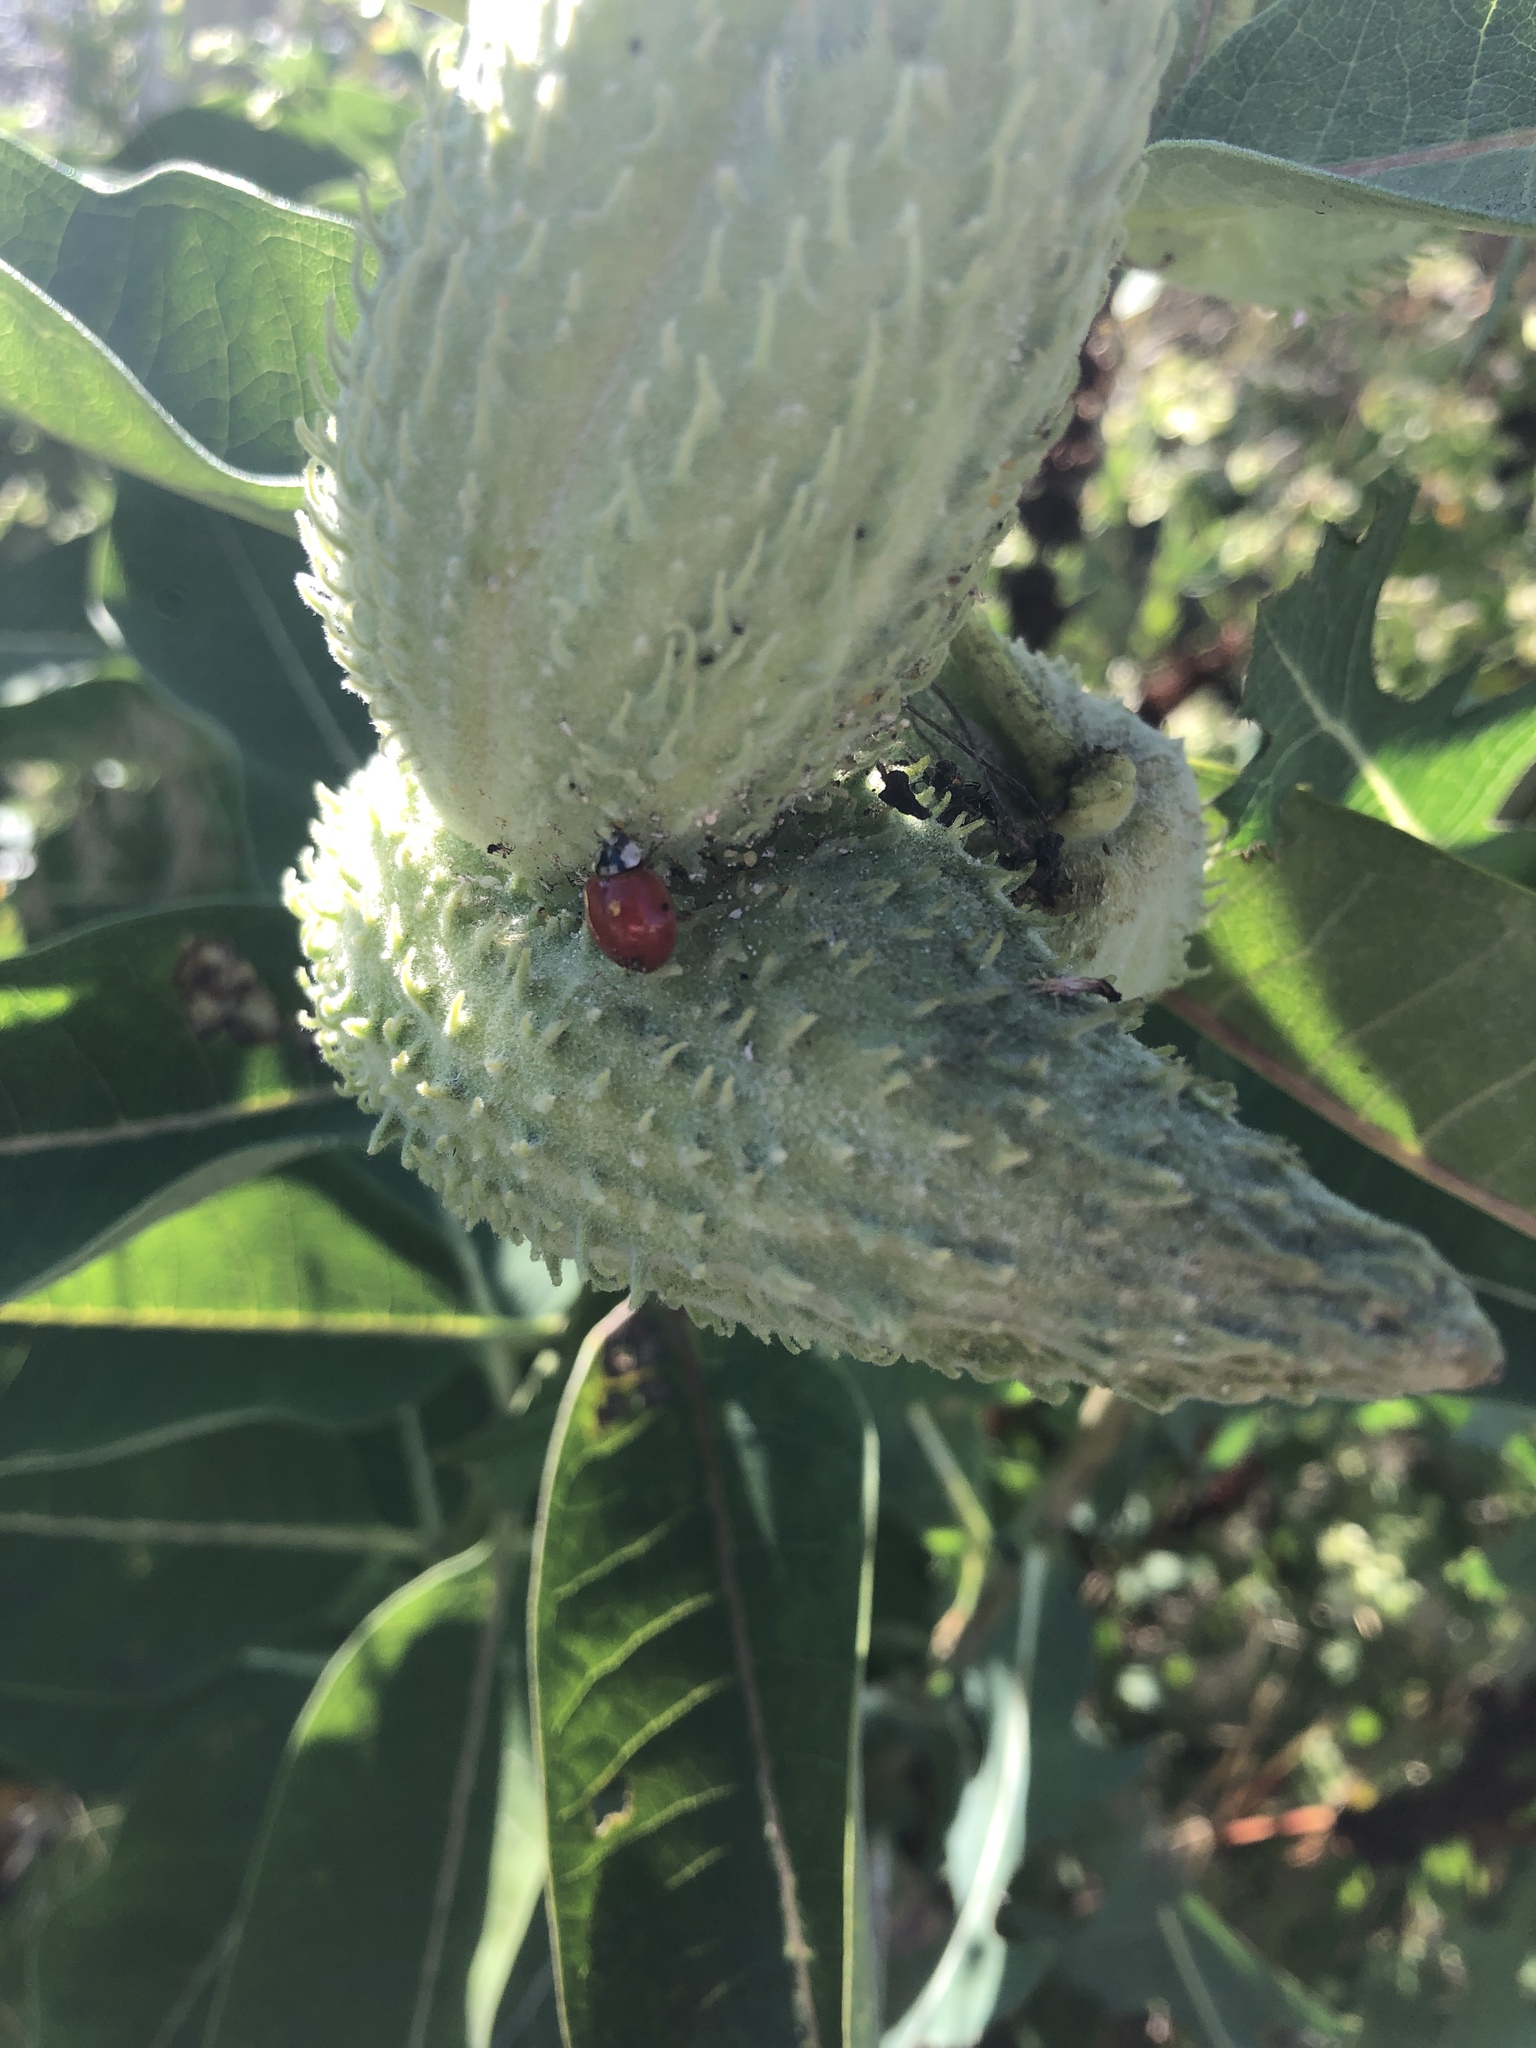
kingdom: Animalia
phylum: Arthropoda
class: Insecta
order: Coleoptera
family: Coccinellidae
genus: Harmonia
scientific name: Harmonia axyridis
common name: Harlequin ladybird
